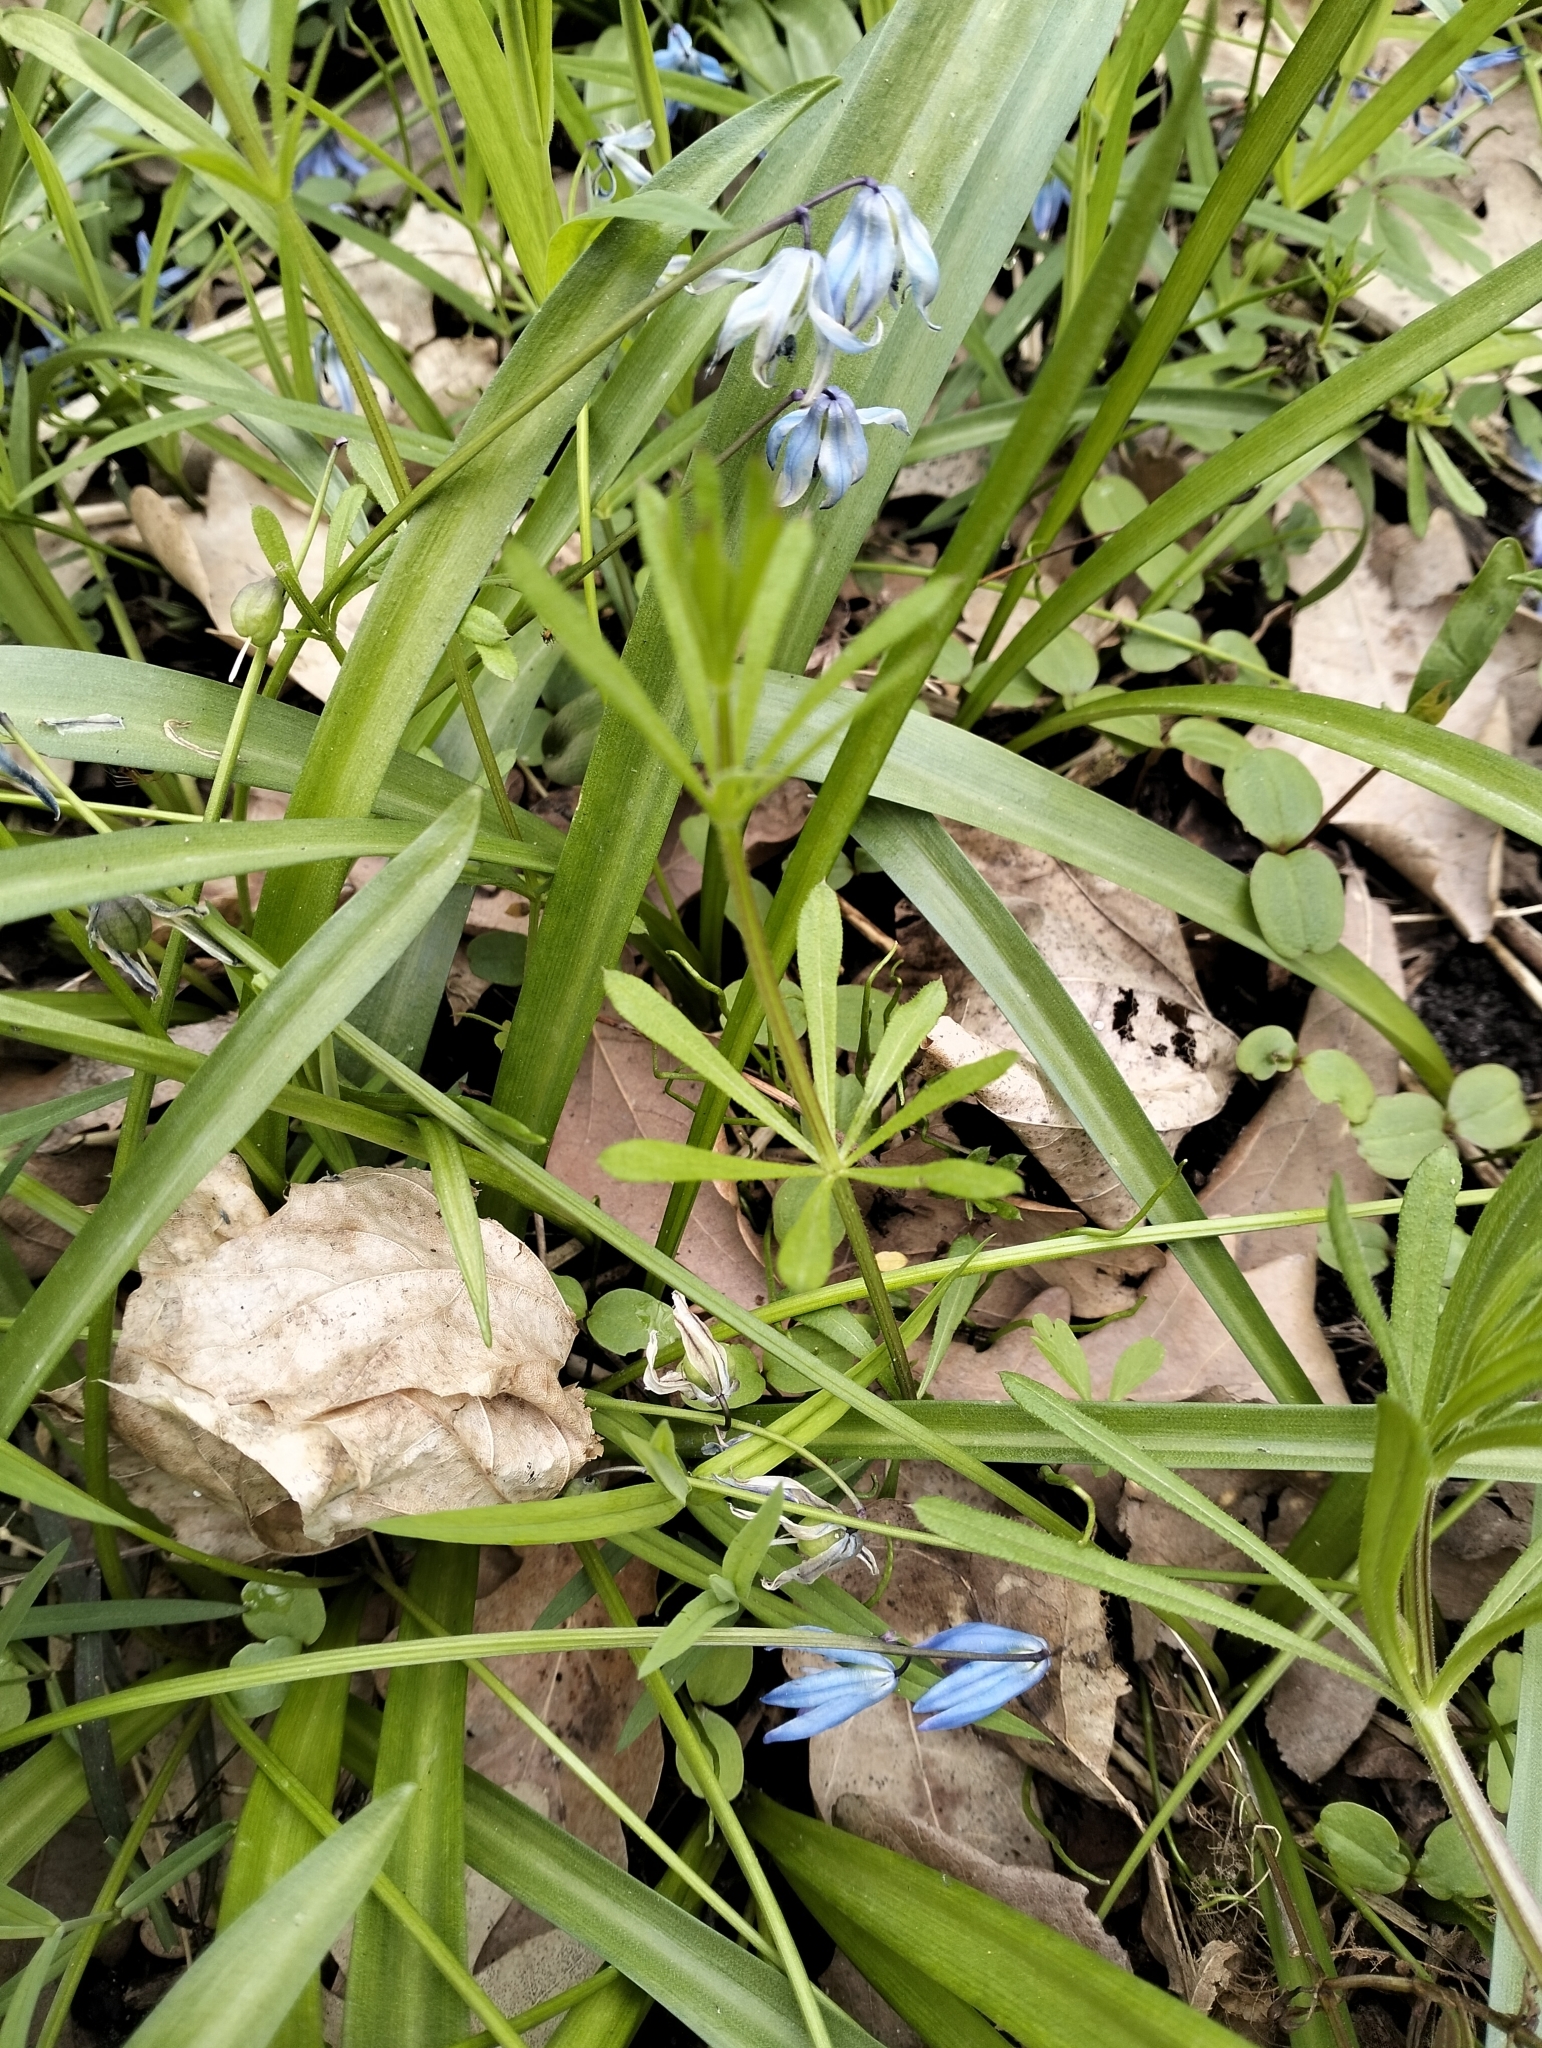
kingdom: Plantae
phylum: Tracheophyta
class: Magnoliopsida
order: Gentianales
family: Rubiaceae
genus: Galium
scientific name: Galium aparine
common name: Cleavers
